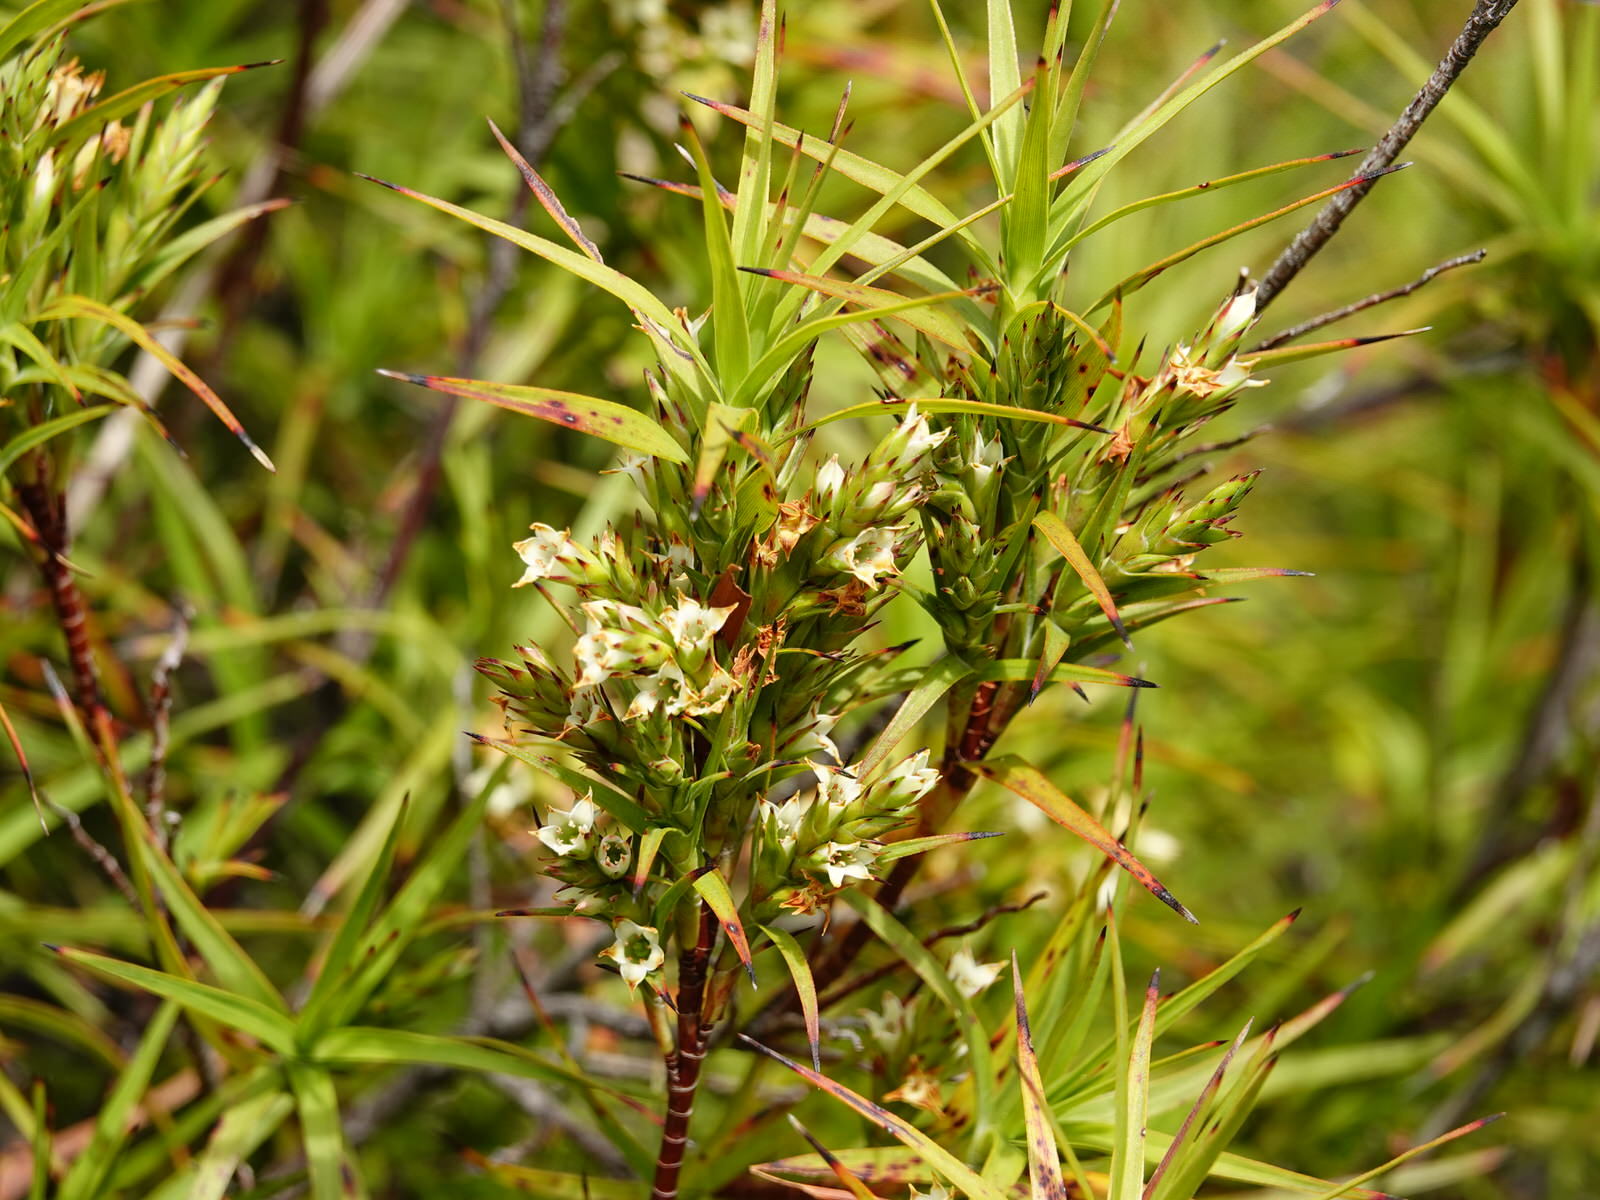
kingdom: Plantae
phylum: Tracheophyta
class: Magnoliopsida
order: Ericales
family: Ericaceae
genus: Dracophyllum
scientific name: Dracophyllum sinclairii
